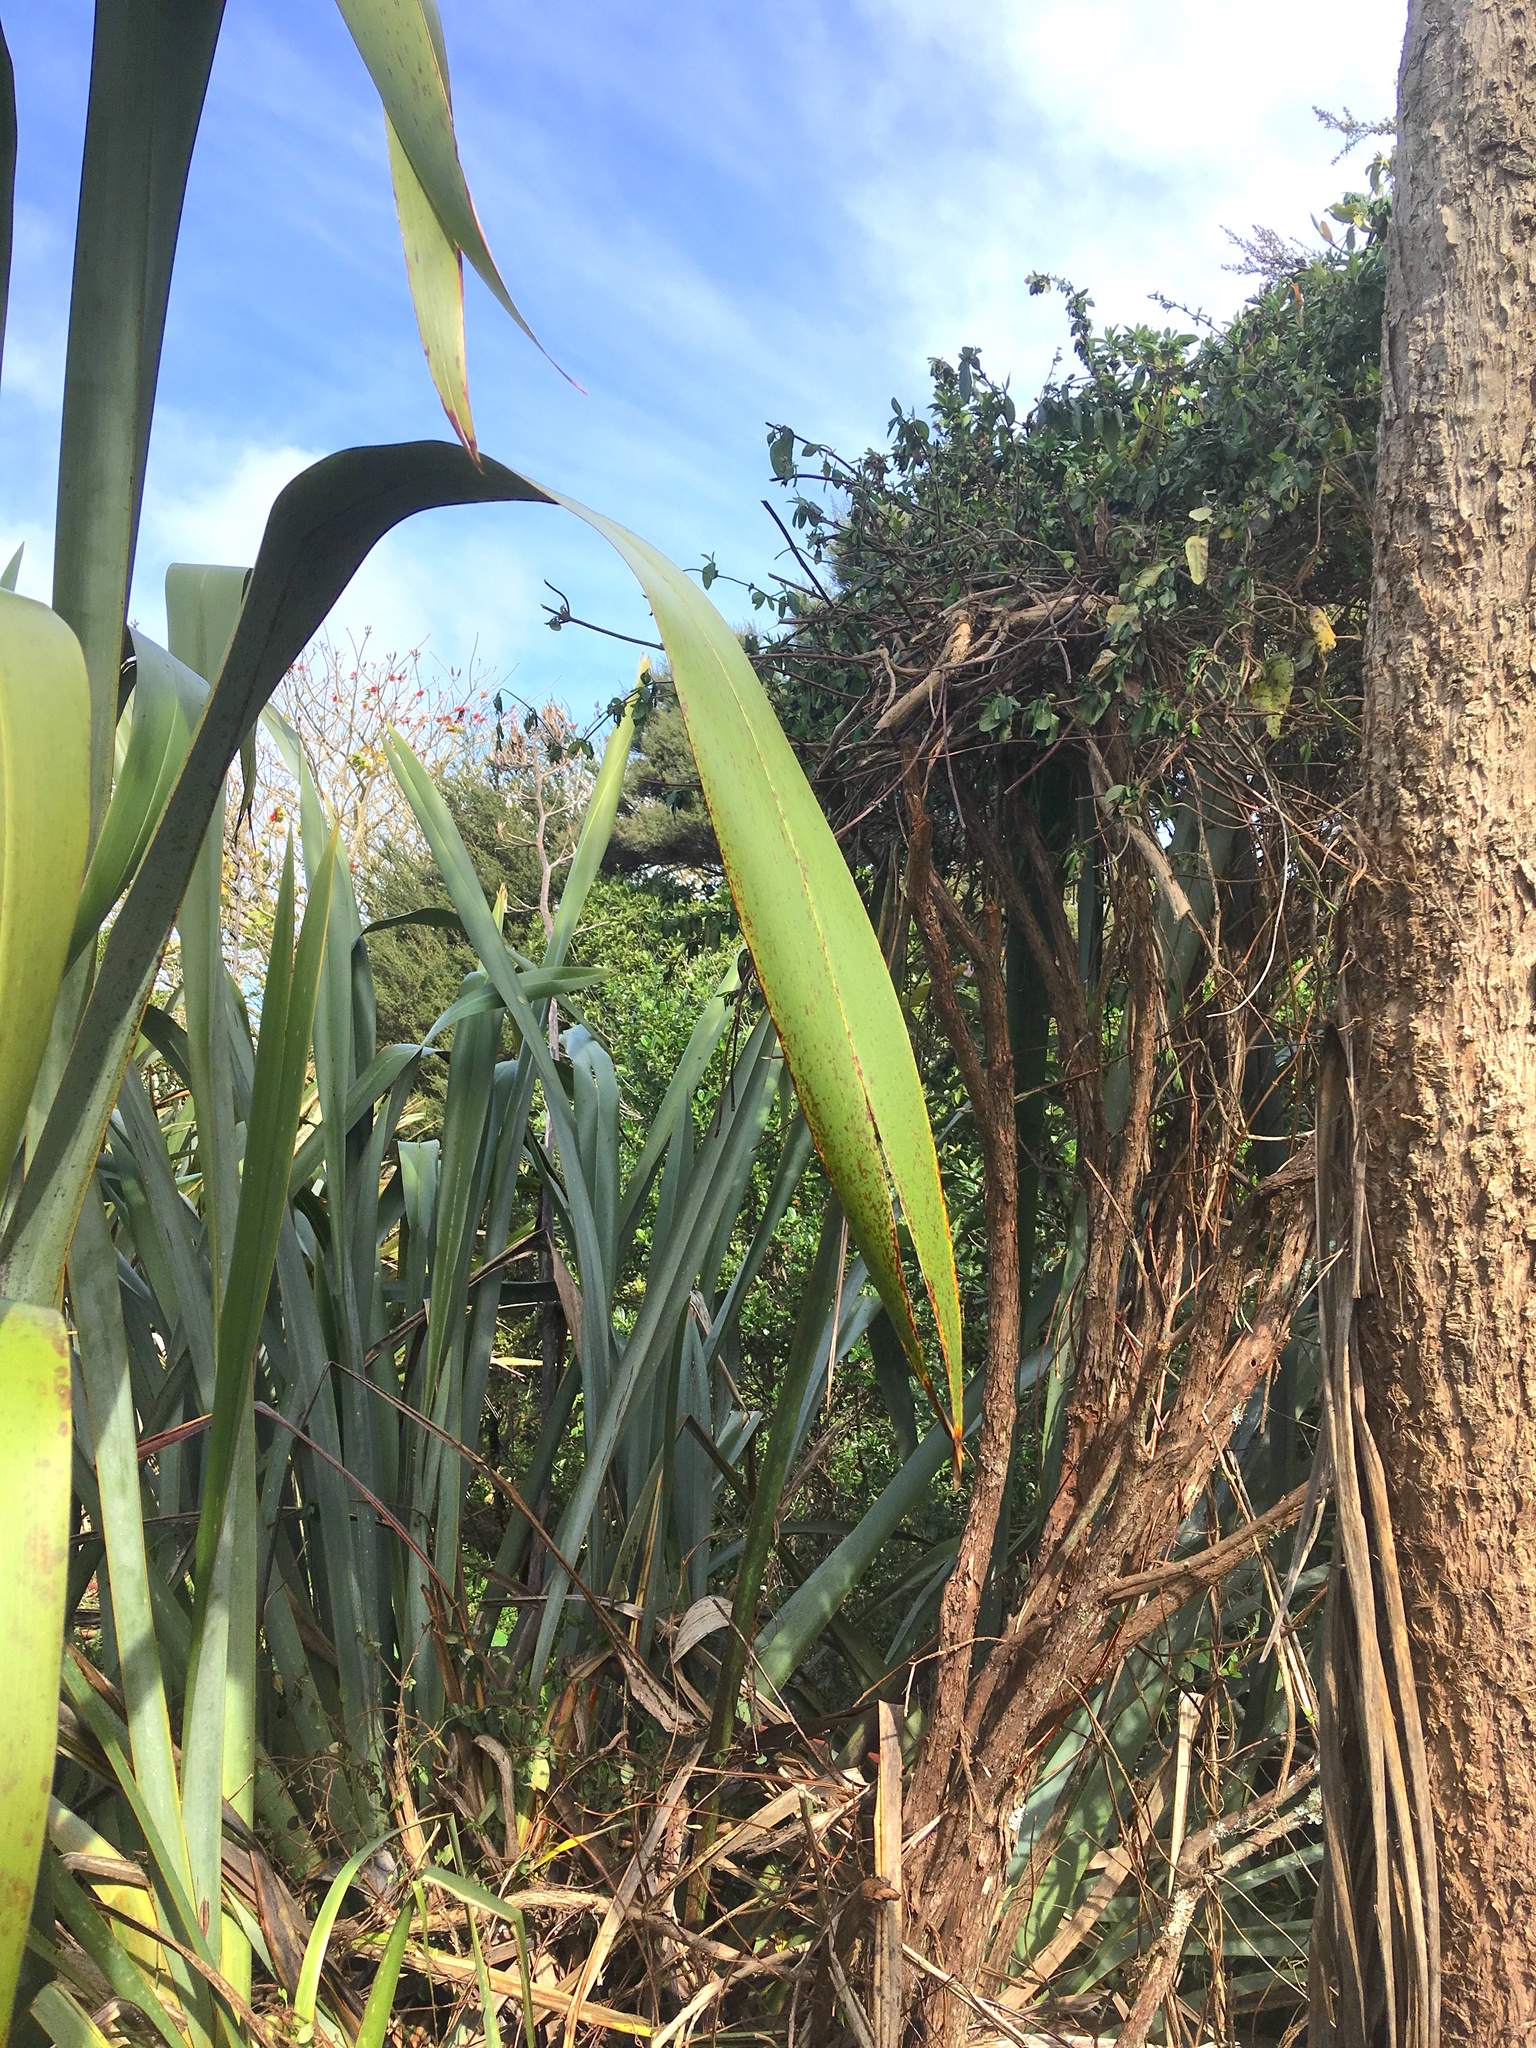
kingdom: Plantae
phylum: Tracheophyta
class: Magnoliopsida
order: Myrtales
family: Myrtaceae
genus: Leptospermum
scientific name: Leptospermum scoparium
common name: Broom tea-tree
